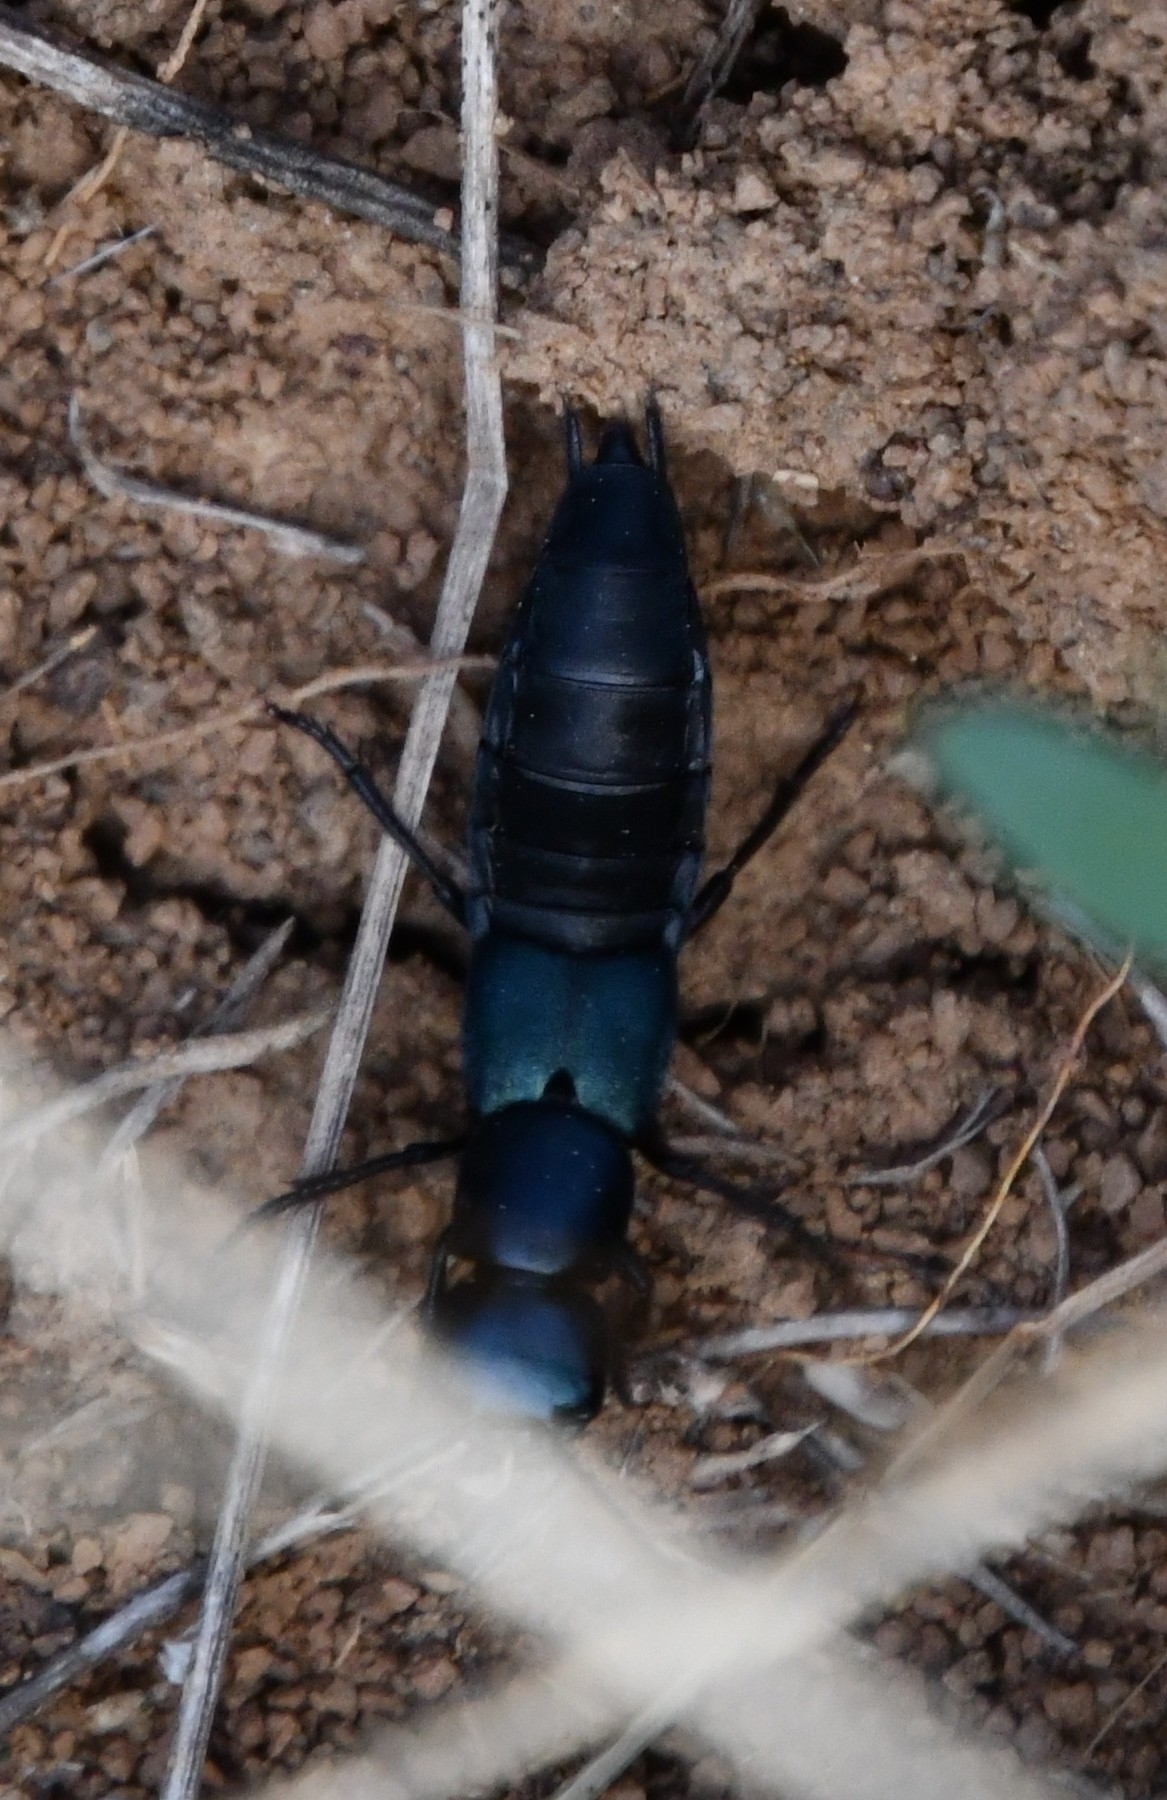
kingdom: Animalia
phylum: Arthropoda
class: Insecta
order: Coleoptera
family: Staphylinidae
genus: Ocypus
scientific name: Ocypus ophthalmicus
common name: Blue rove-beetle
